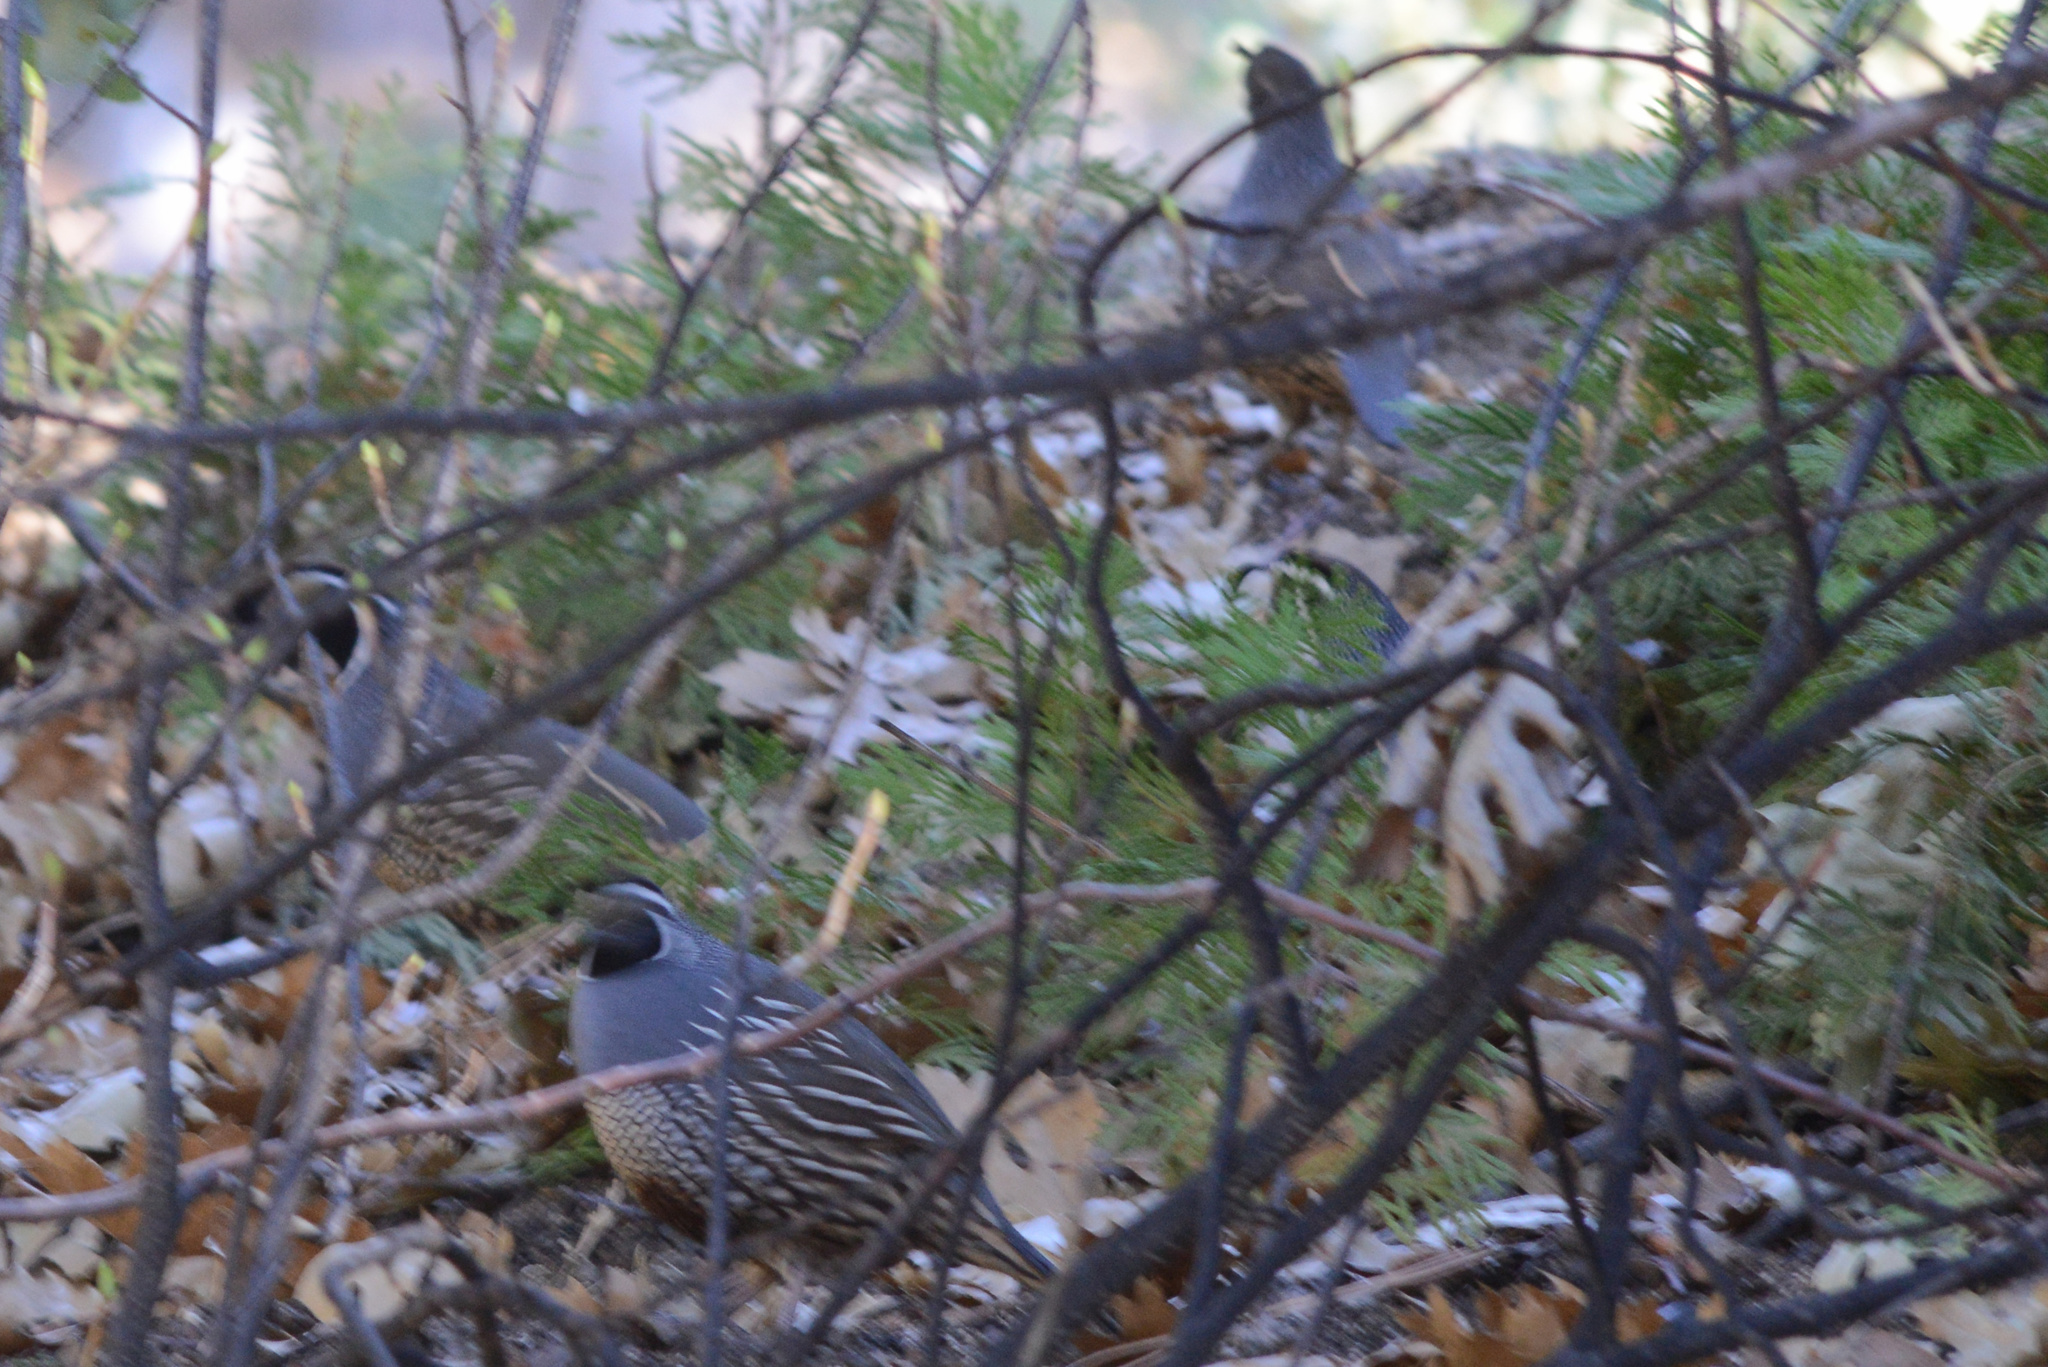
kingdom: Animalia
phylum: Chordata
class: Aves
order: Galliformes
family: Odontophoridae
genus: Callipepla
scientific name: Callipepla californica
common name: California quail
